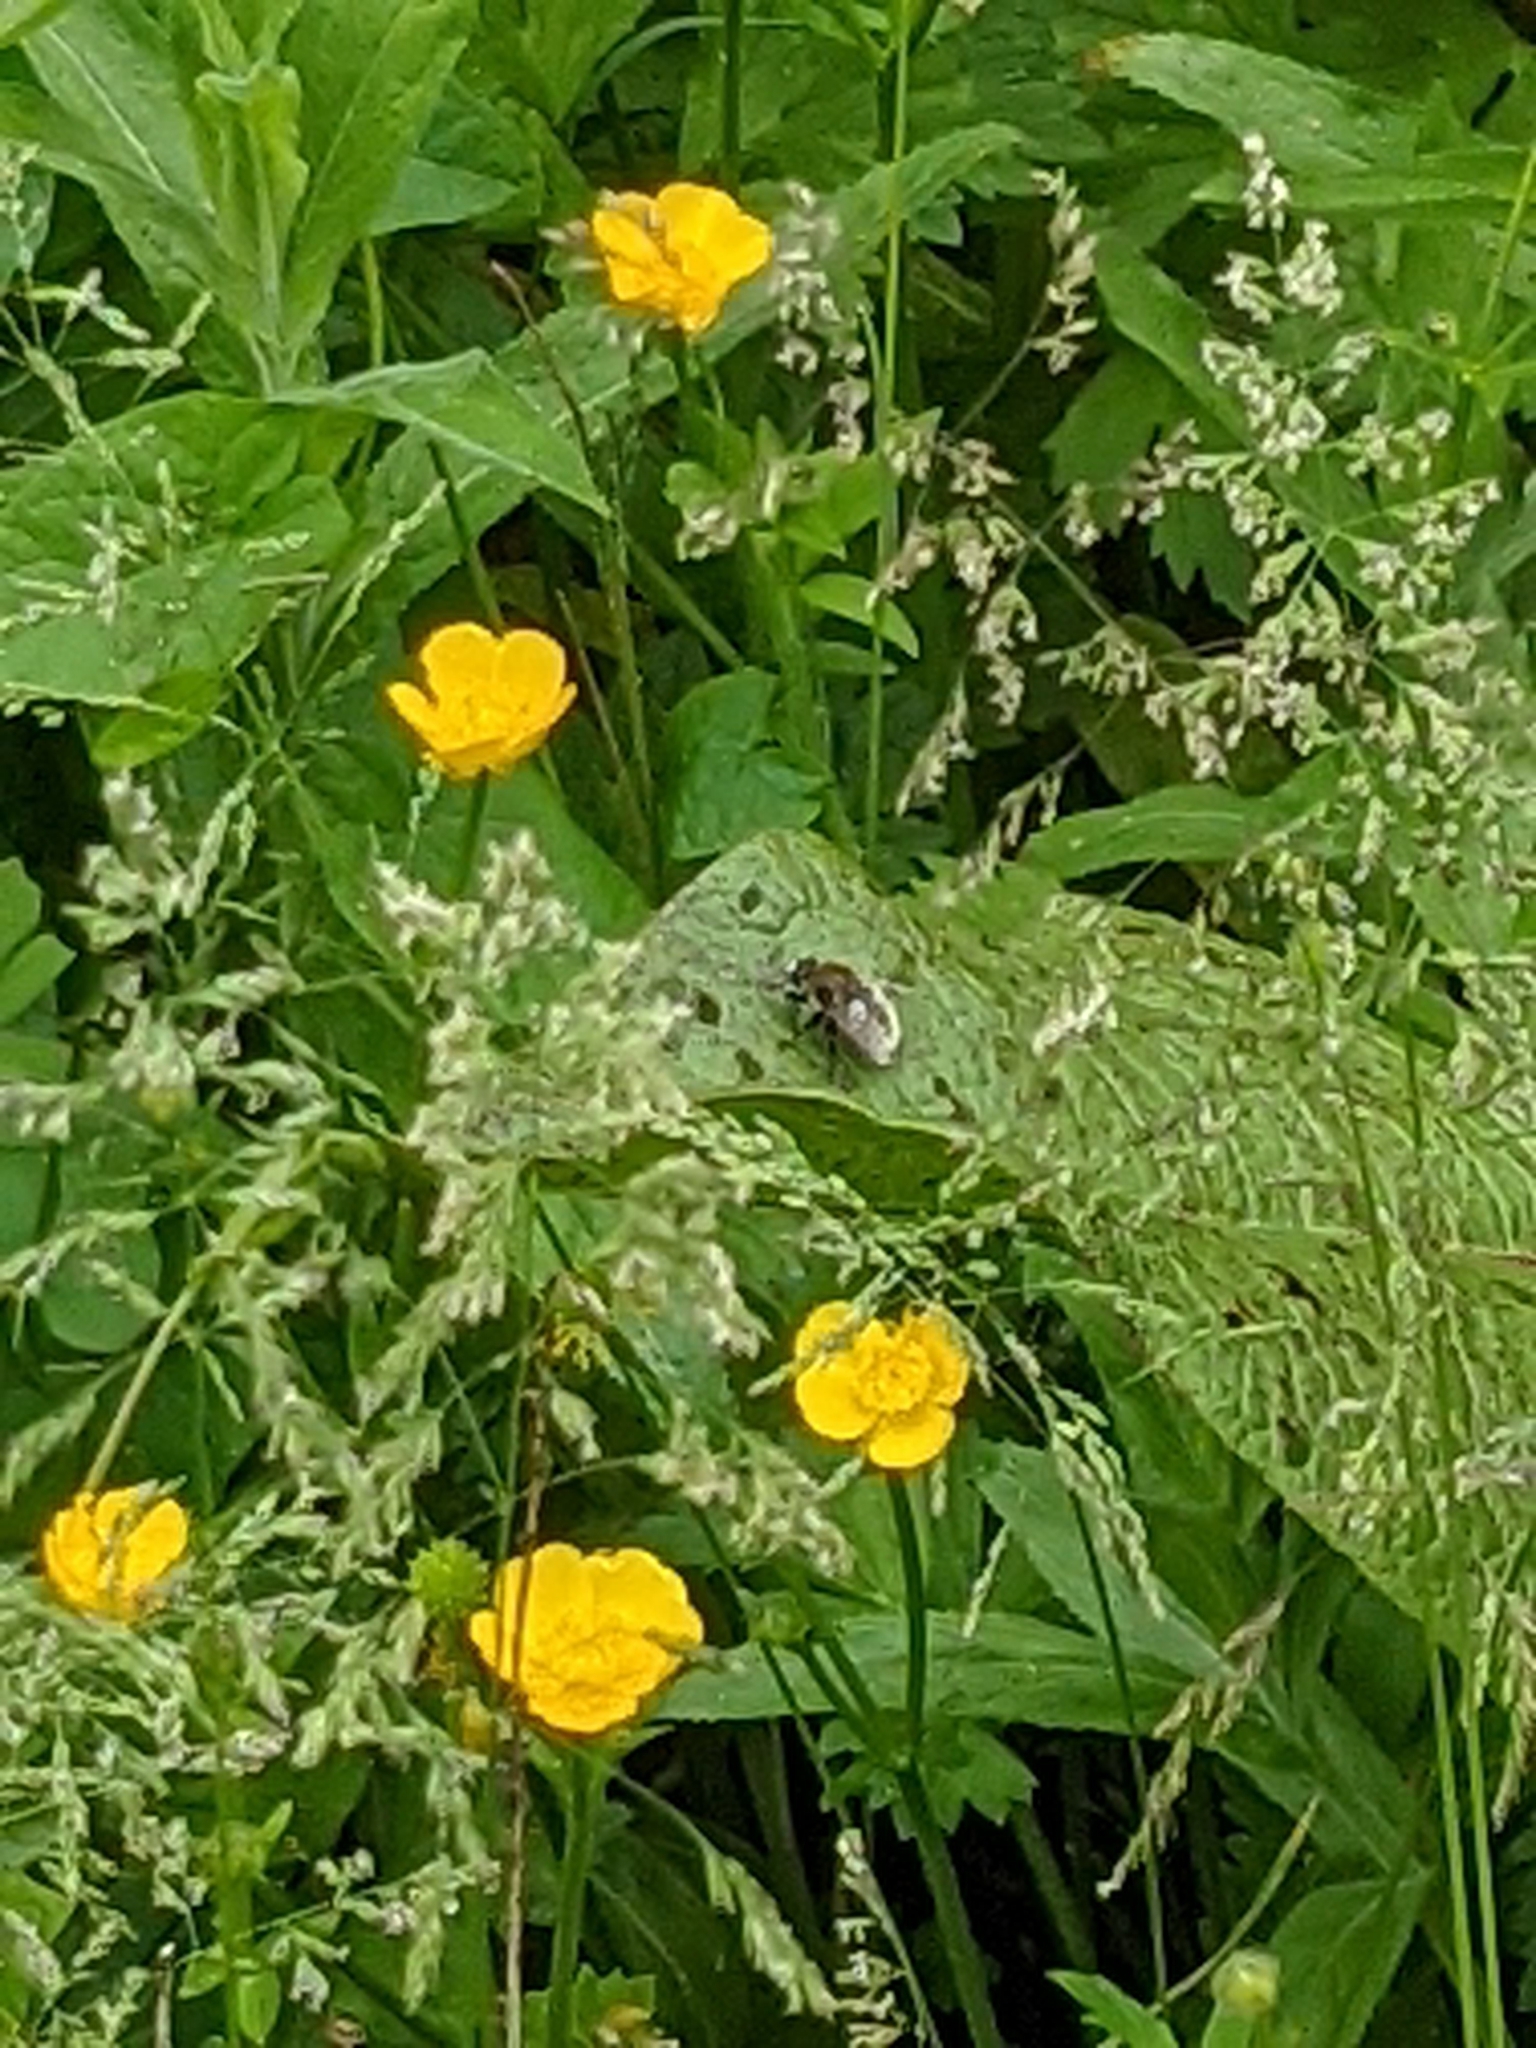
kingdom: Animalia
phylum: Arthropoda
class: Insecta
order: Diptera
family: Syrphidae
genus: Merodon
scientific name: Merodon equestris
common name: Greater bulb-fly
